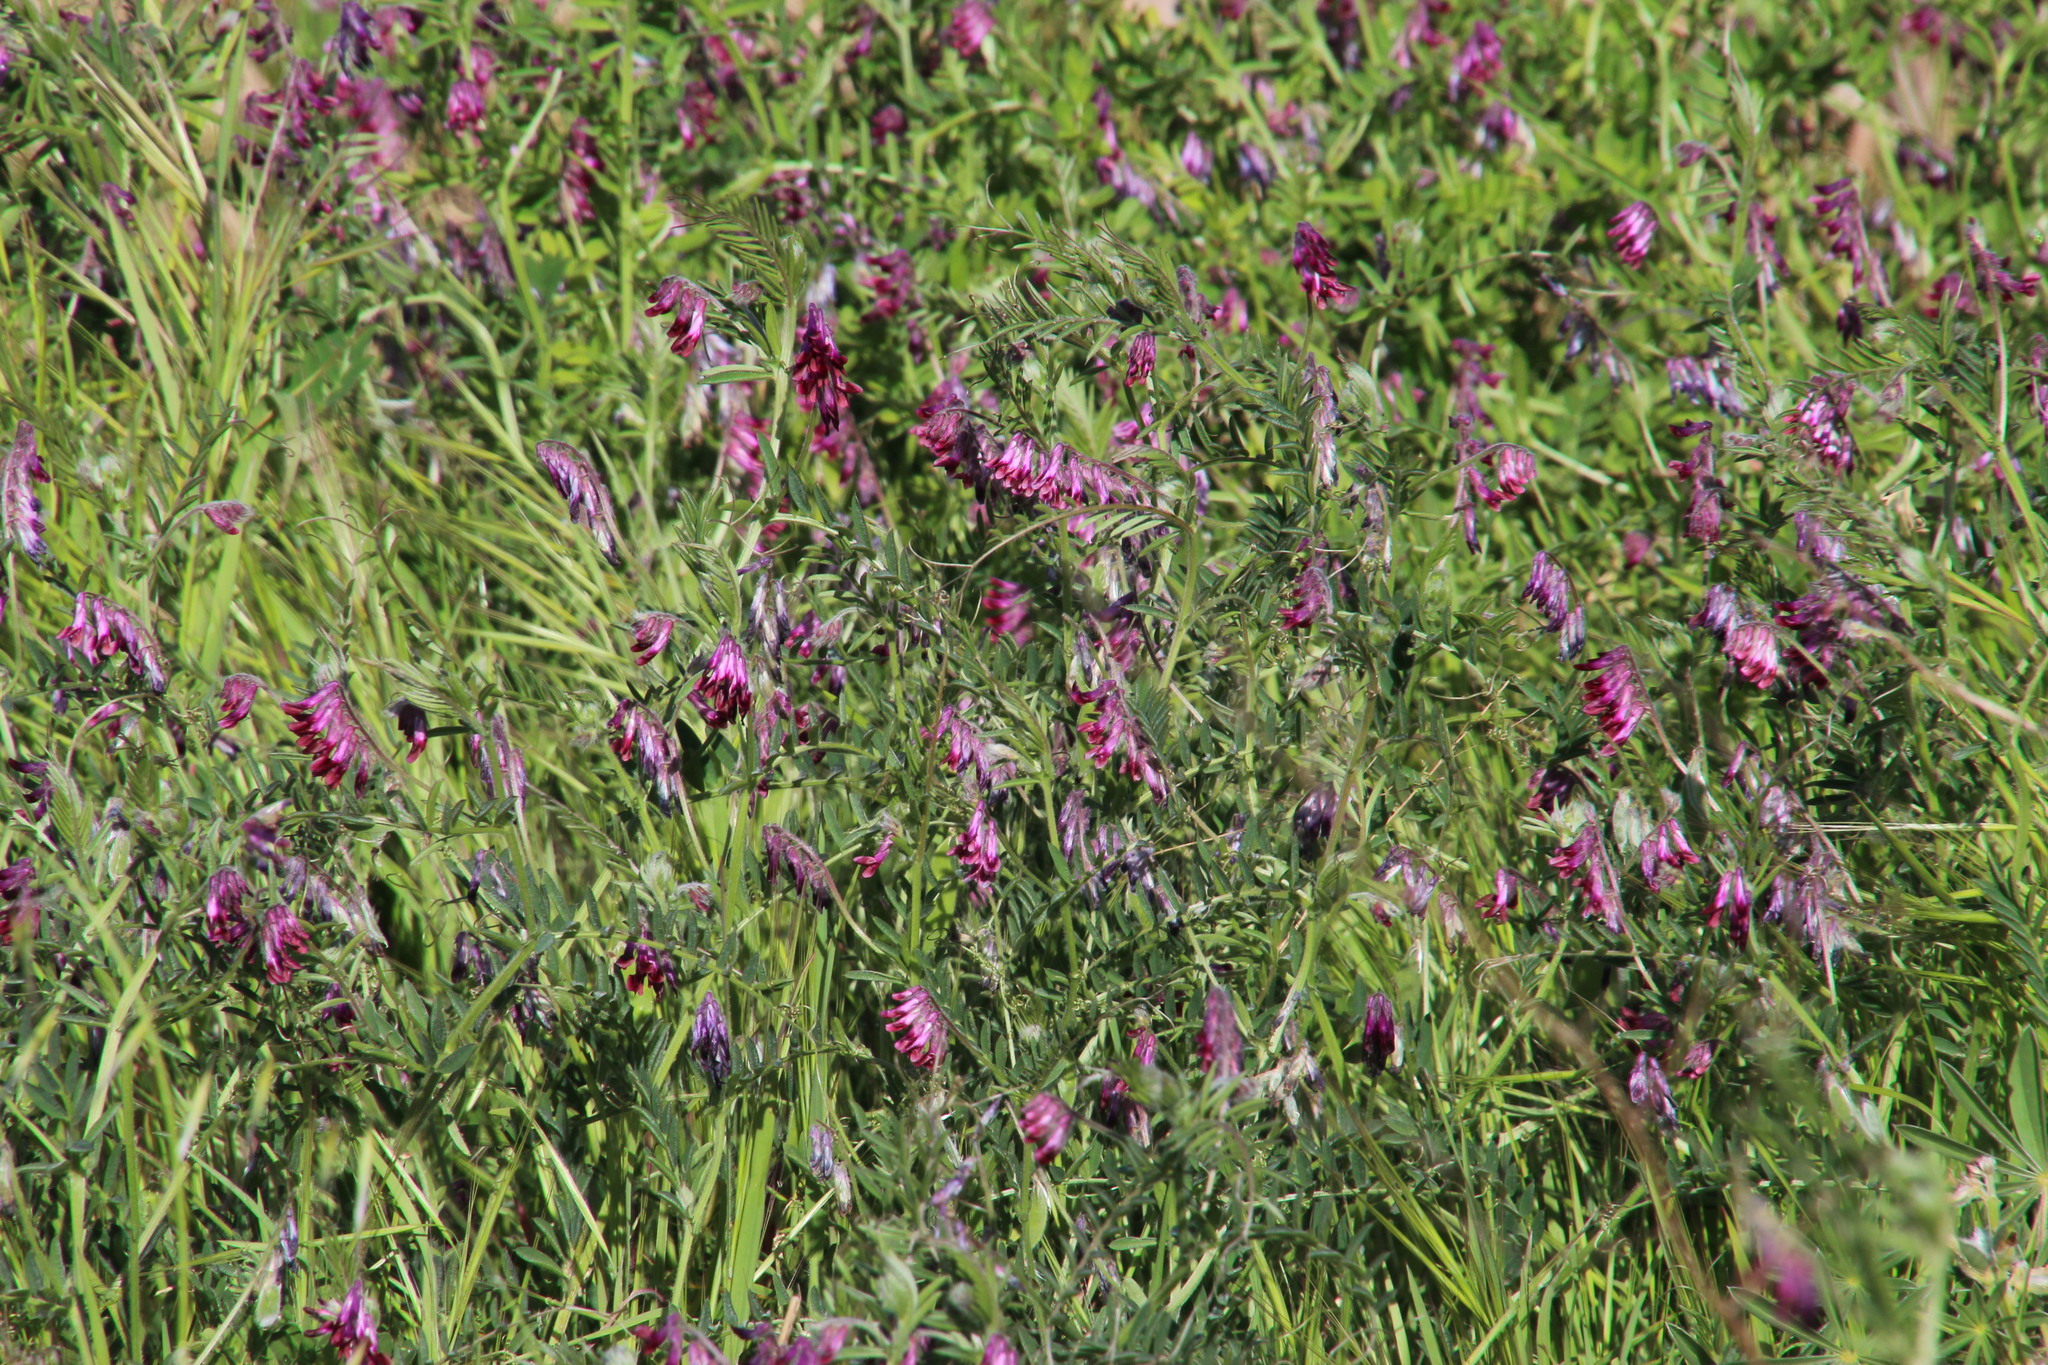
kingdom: Plantae
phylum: Tracheophyta
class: Magnoliopsida
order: Fabales
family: Fabaceae
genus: Vicia
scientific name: Vicia benghalensis
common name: Purple vetch
